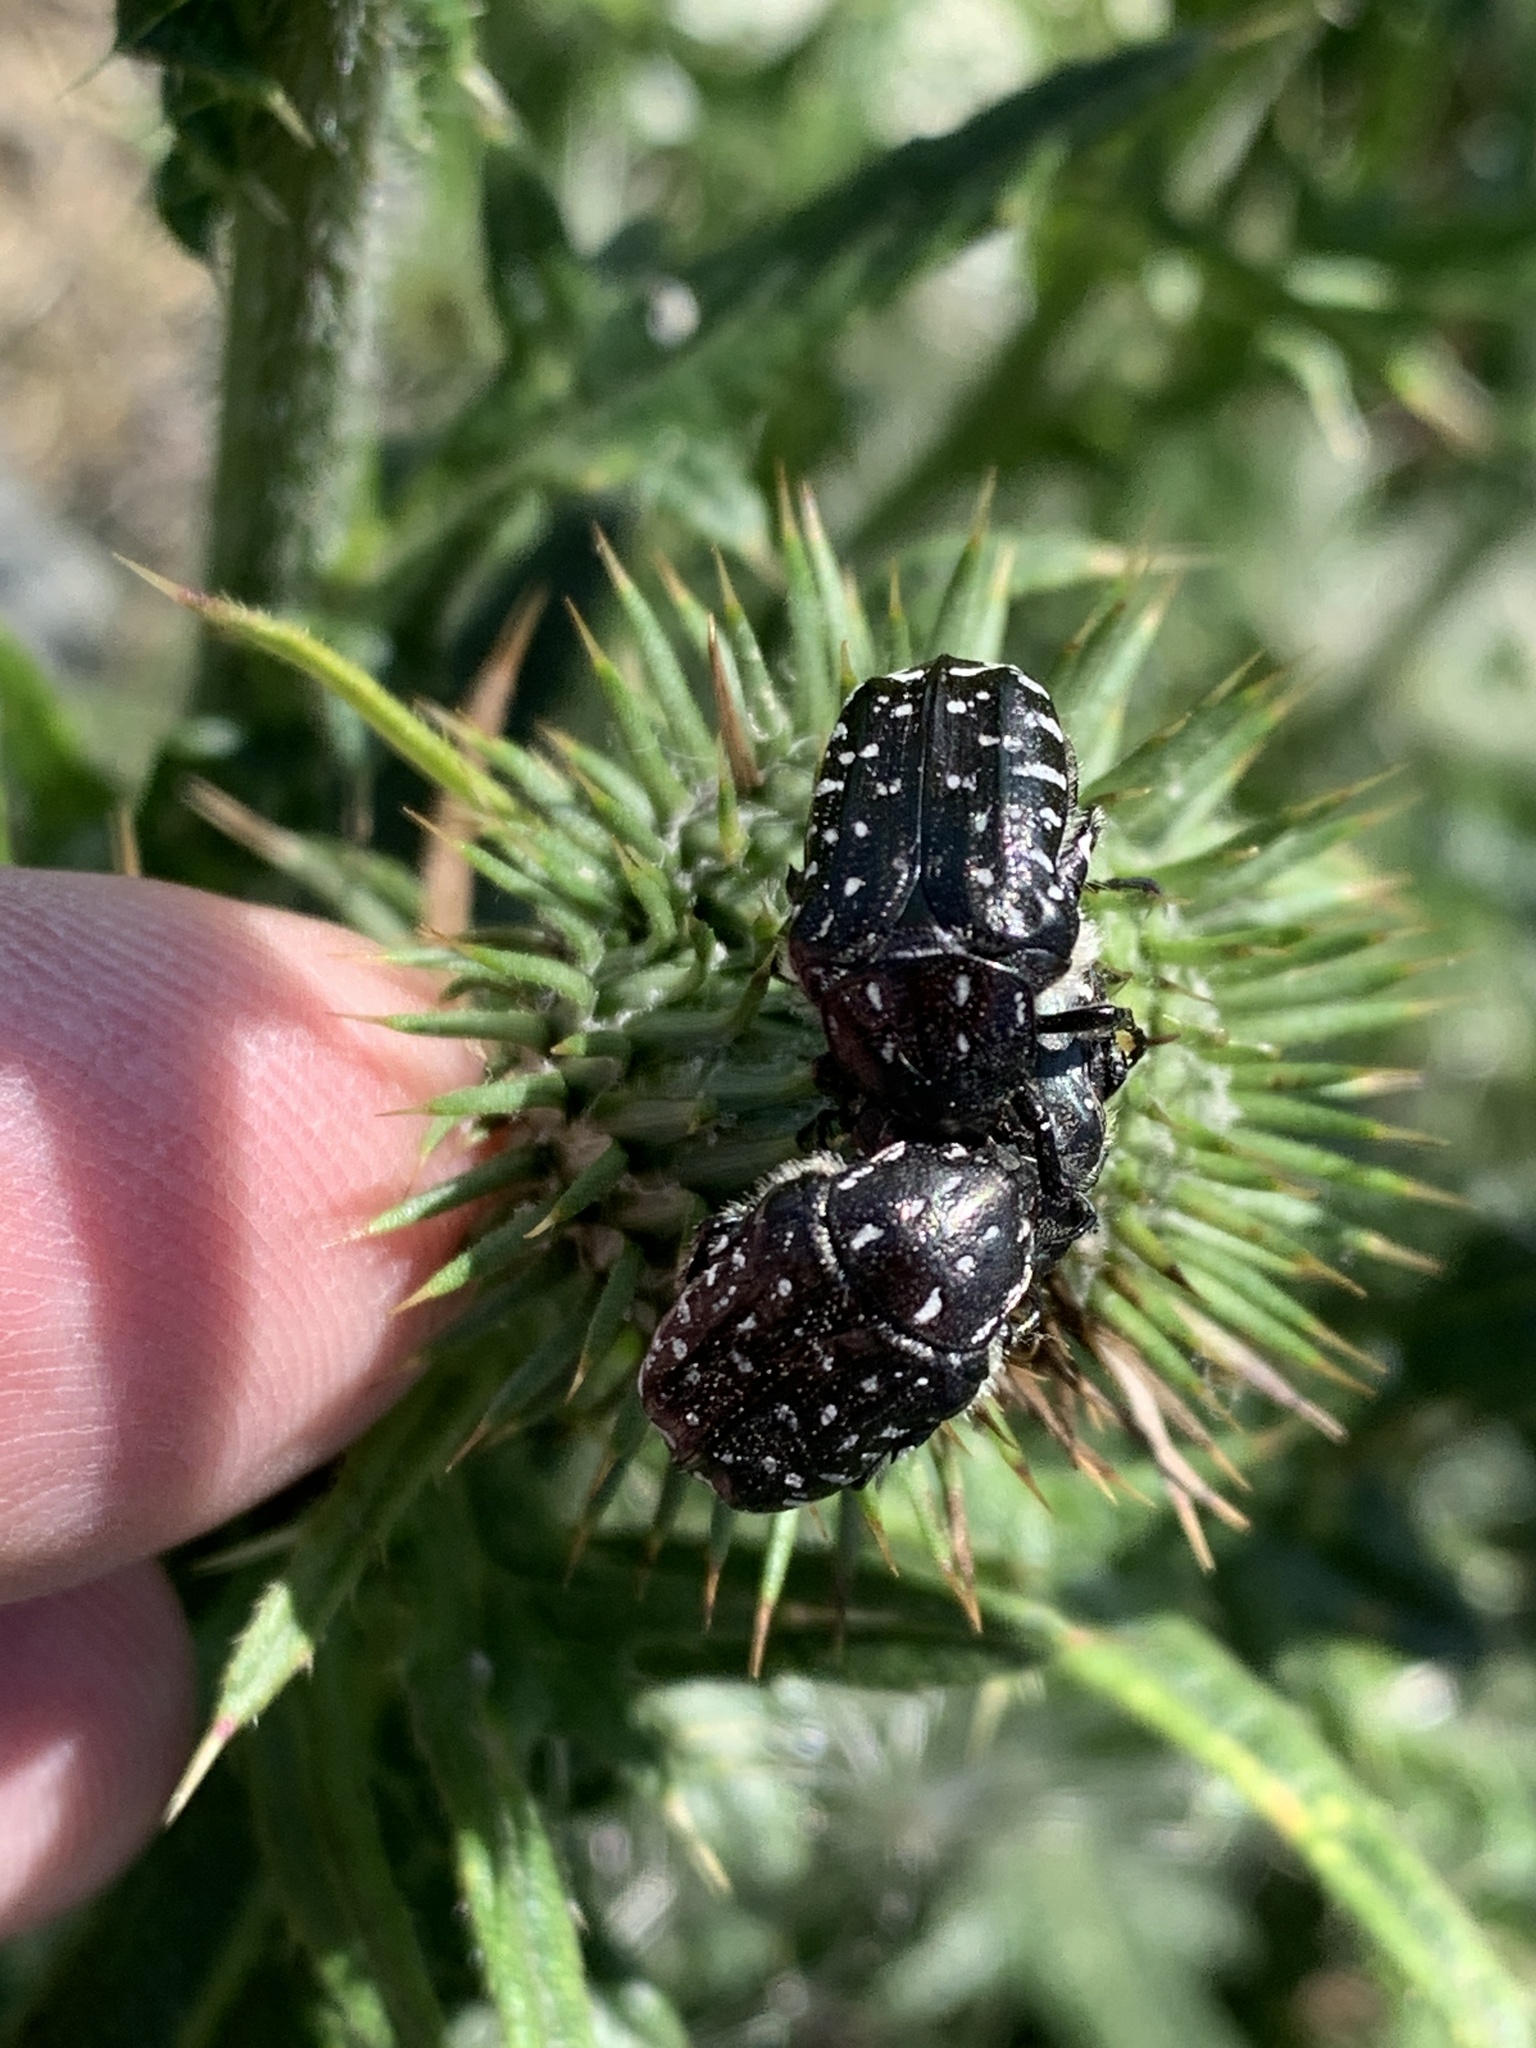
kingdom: Animalia
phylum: Arthropoda
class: Insecta
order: Coleoptera
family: Scarabaeidae
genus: Oxythyrea
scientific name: Oxythyrea funesta
